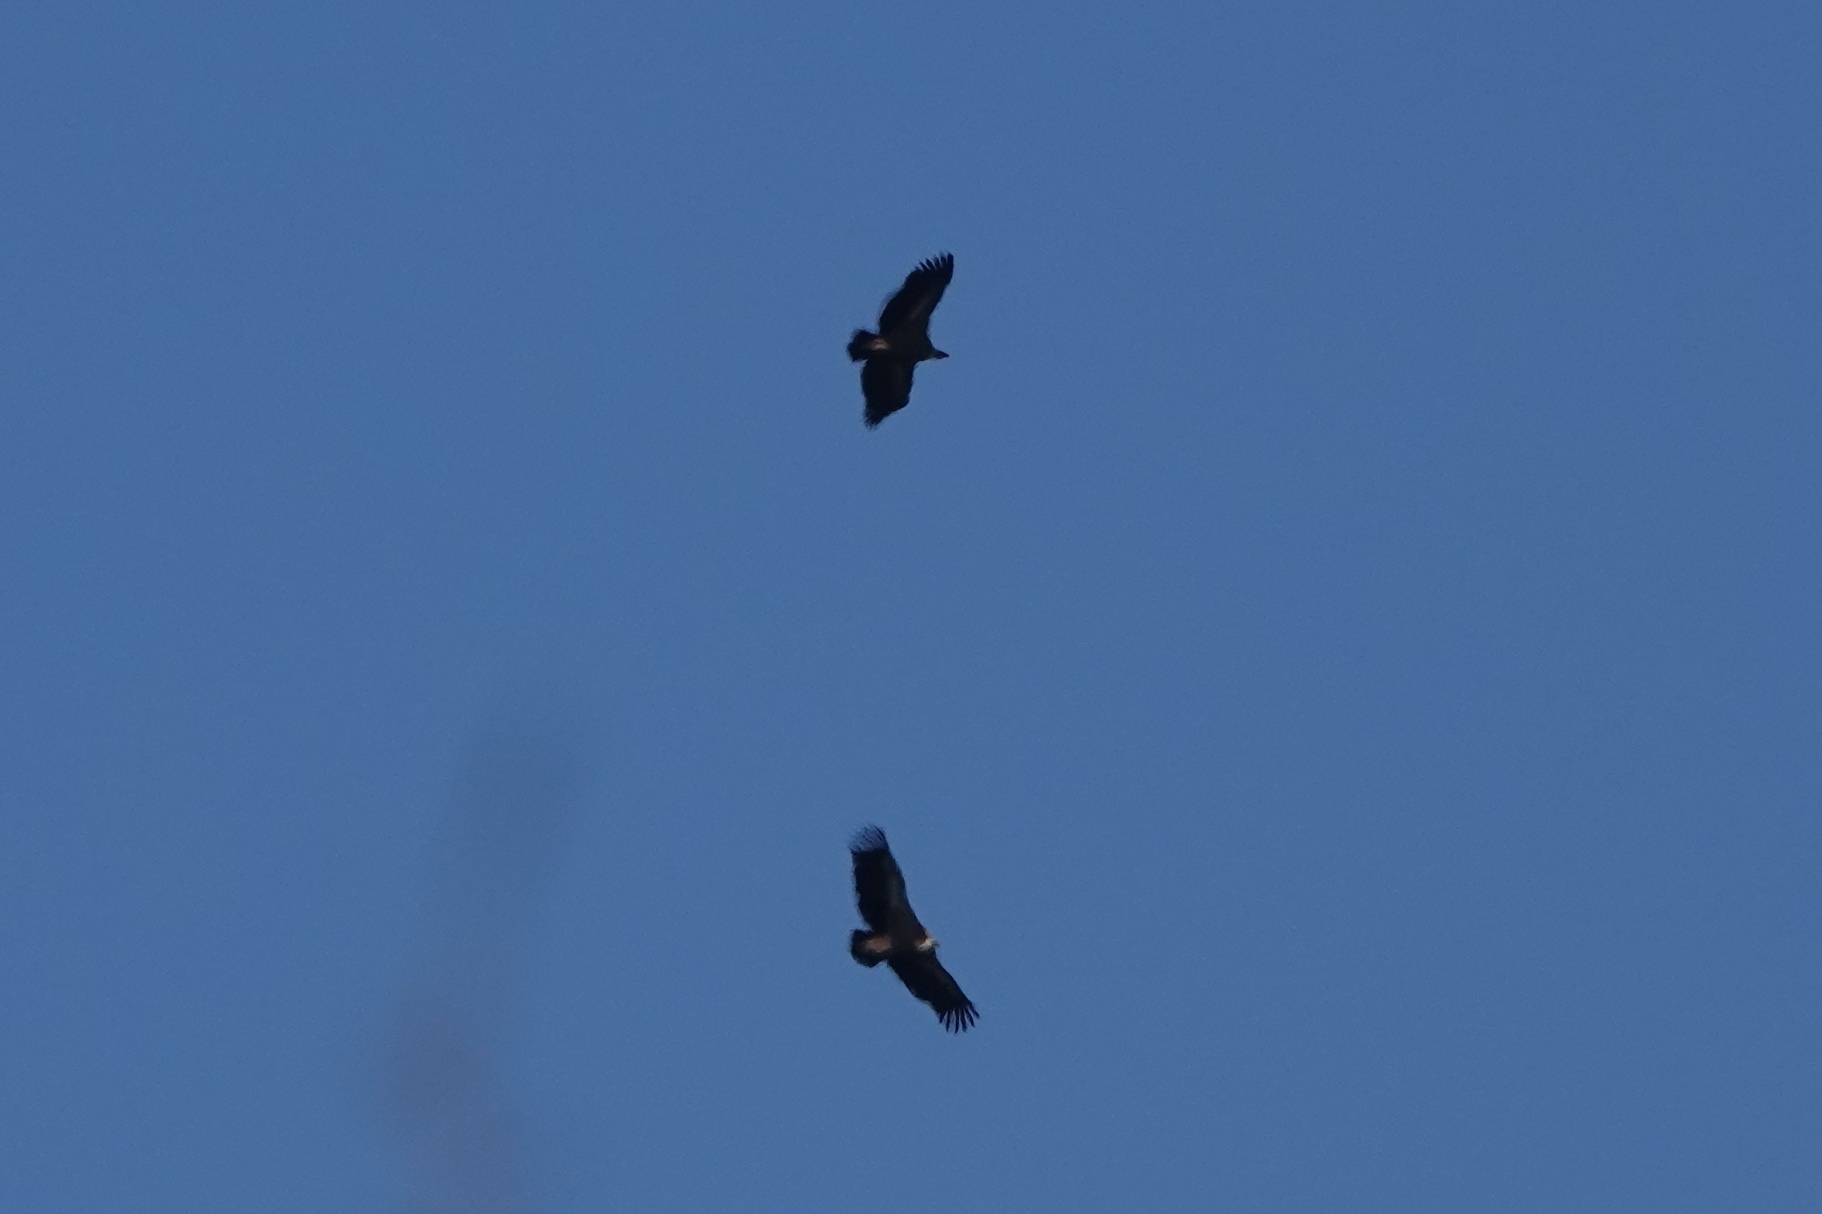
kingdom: Animalia
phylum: Chordata
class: Aves
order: Accipitriformes
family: Accipitridae
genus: Gyps
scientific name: Gyps fulvus
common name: Griffon vulture
